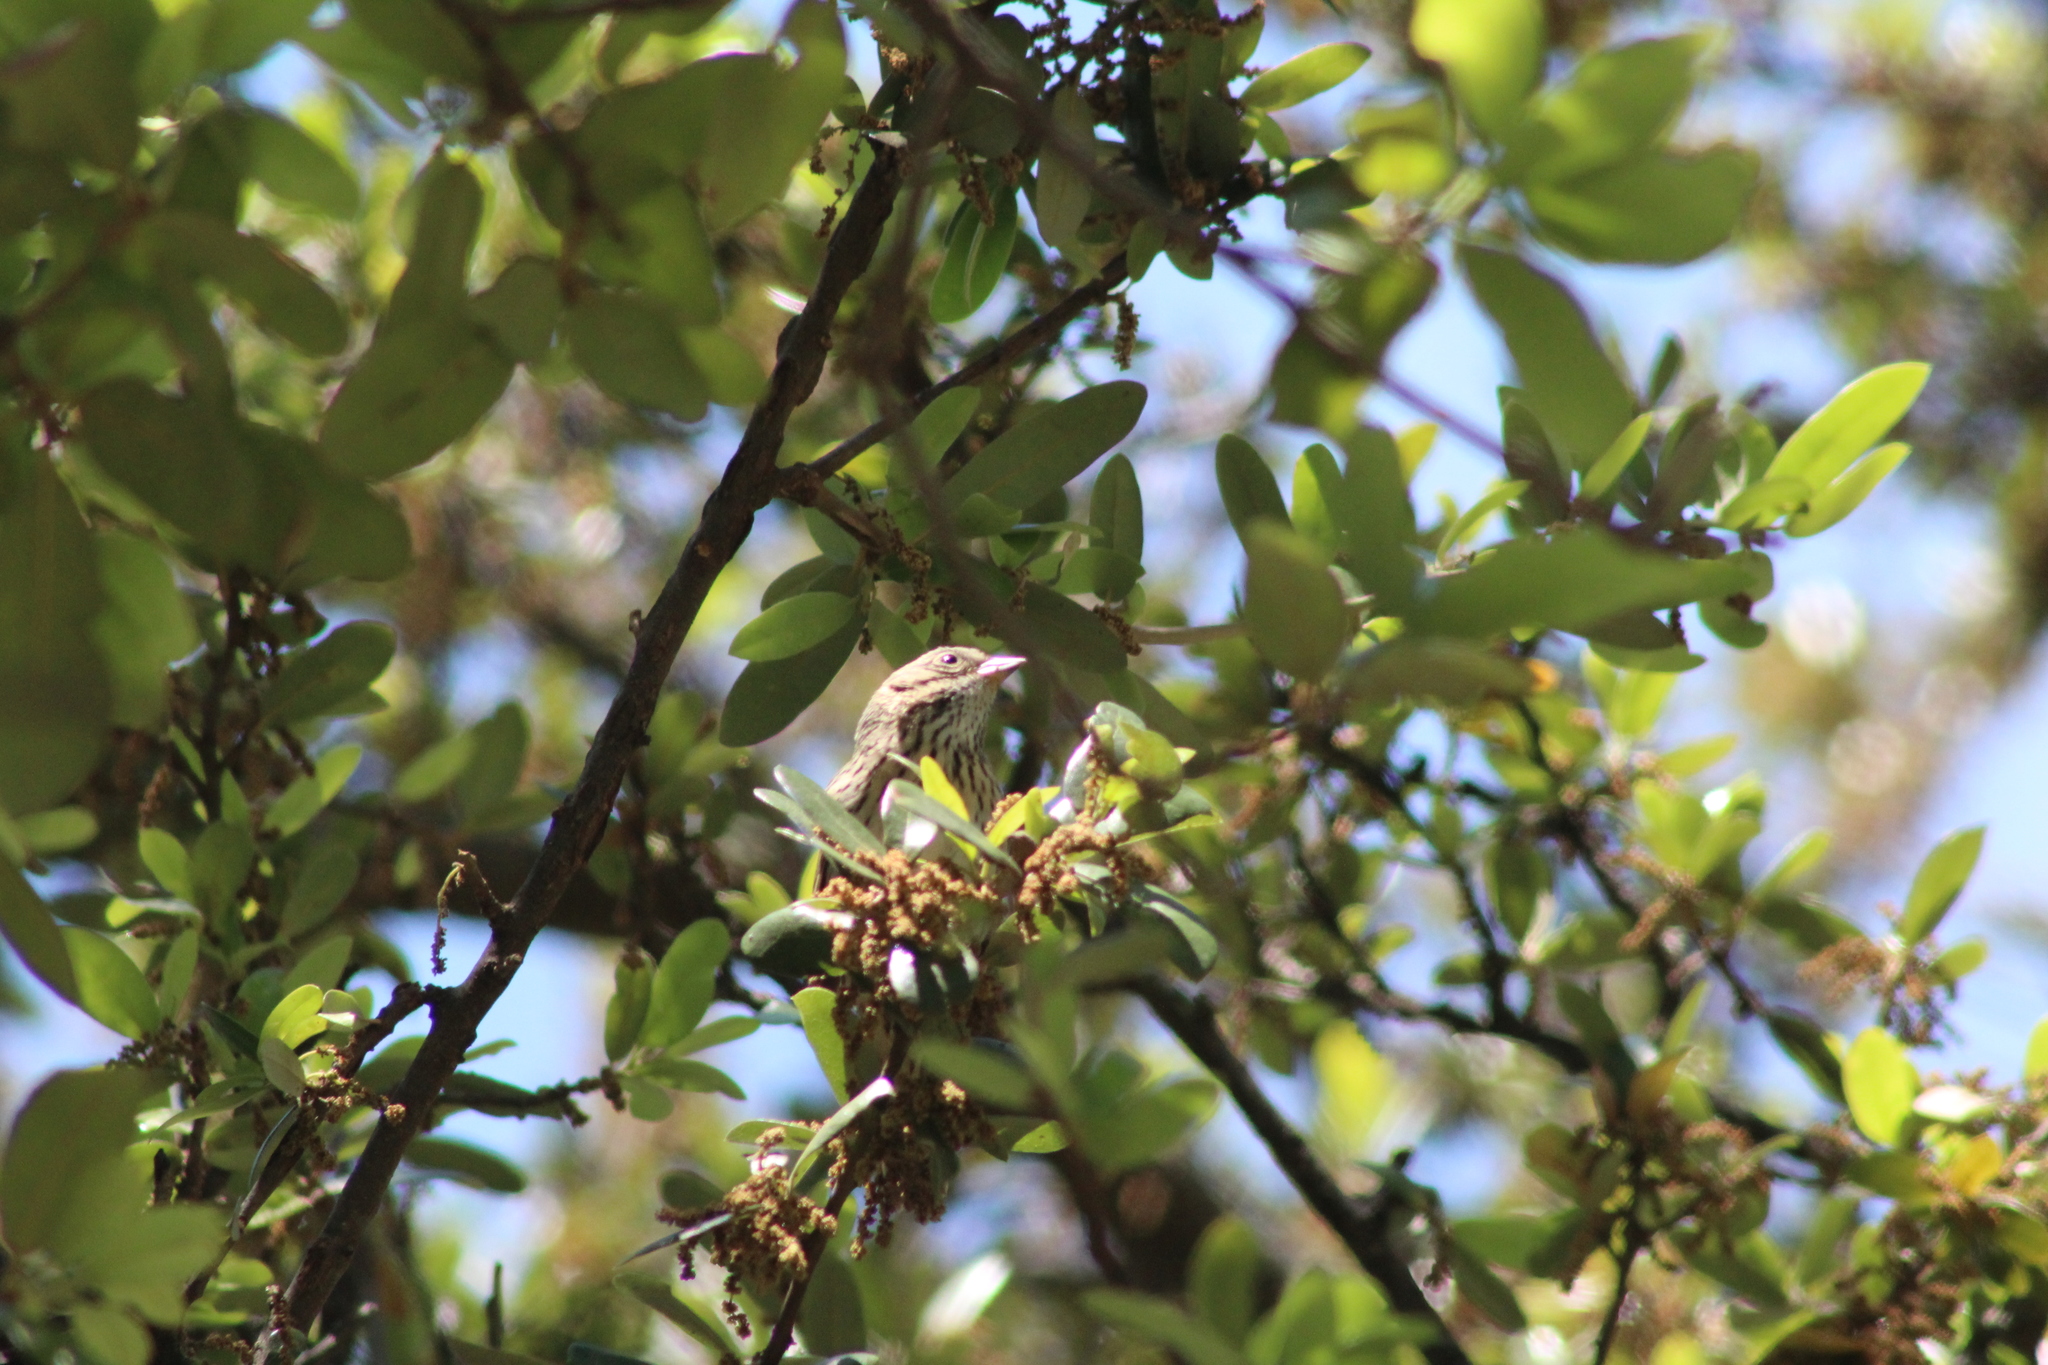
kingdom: Animalia
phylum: Chordata
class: Aves
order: Passeriformes
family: Passerellidae
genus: Melospiza
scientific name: Melospiza lincolnii
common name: Lincoln's sparrow
